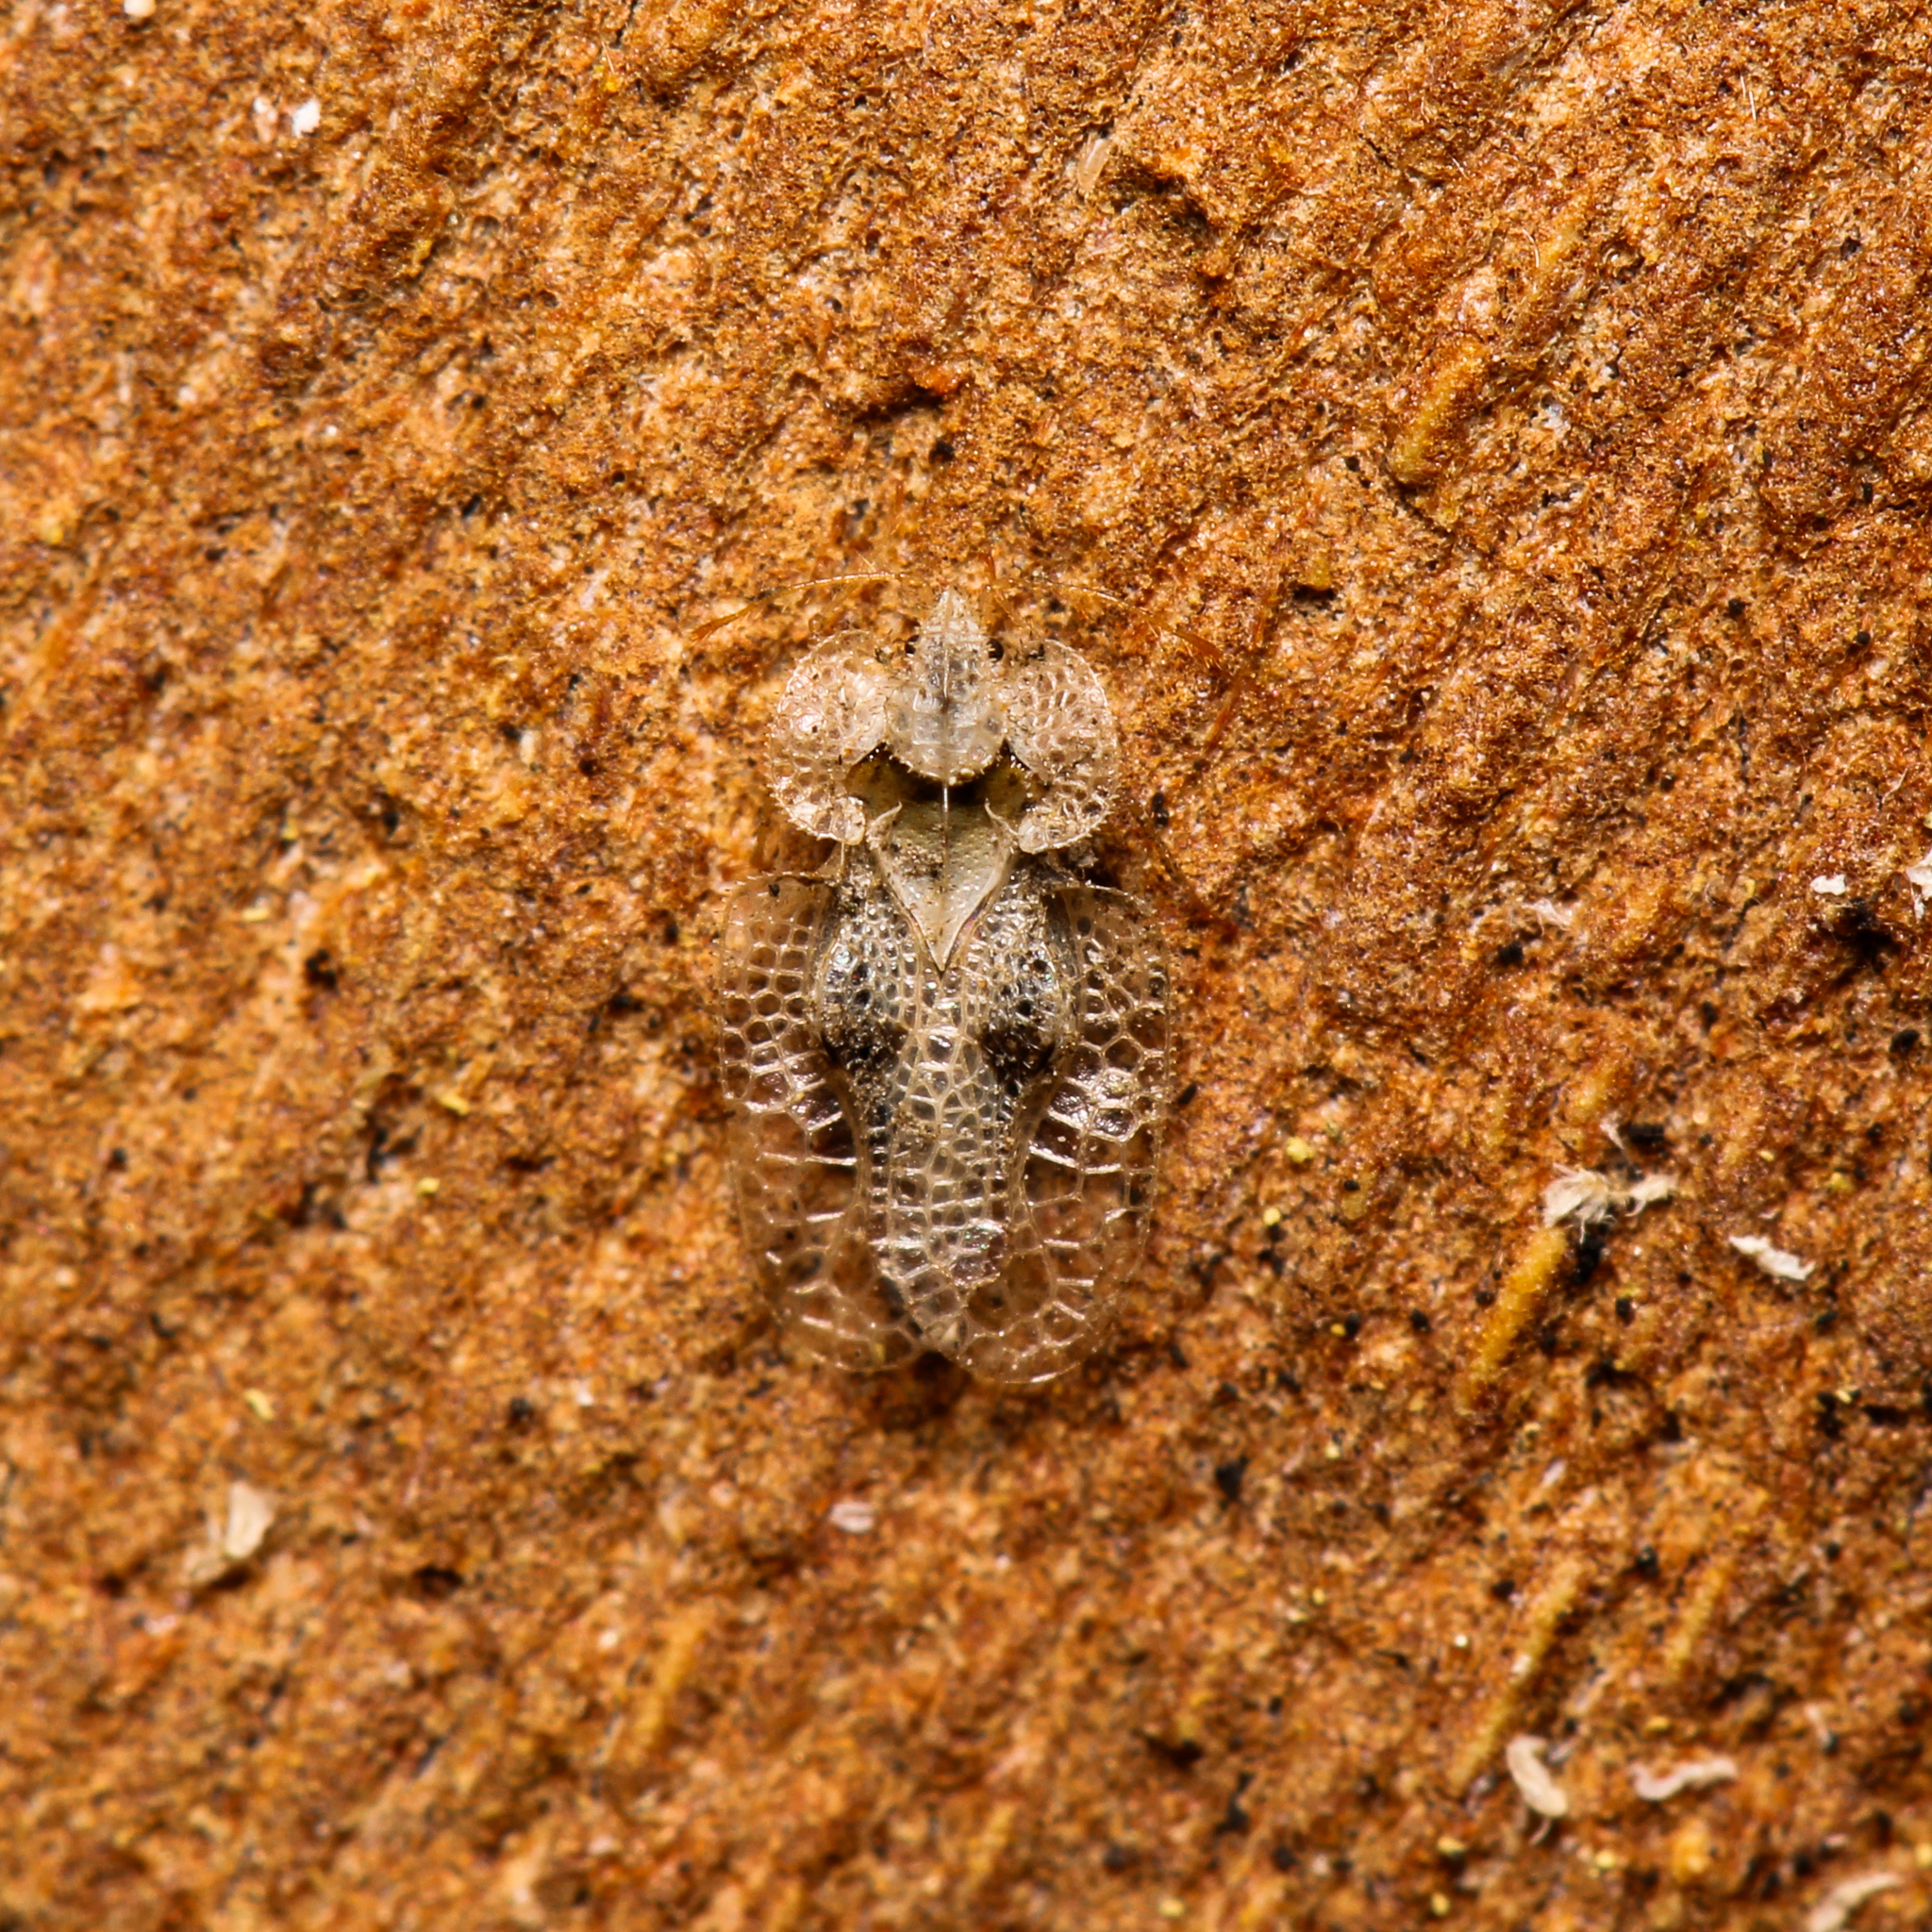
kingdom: Animalia
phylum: Arthropoda
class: Insecta
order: Hemiptera
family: Tingidae
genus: Corythucha
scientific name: Corythucha ciliata
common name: Sycamore lace bug
